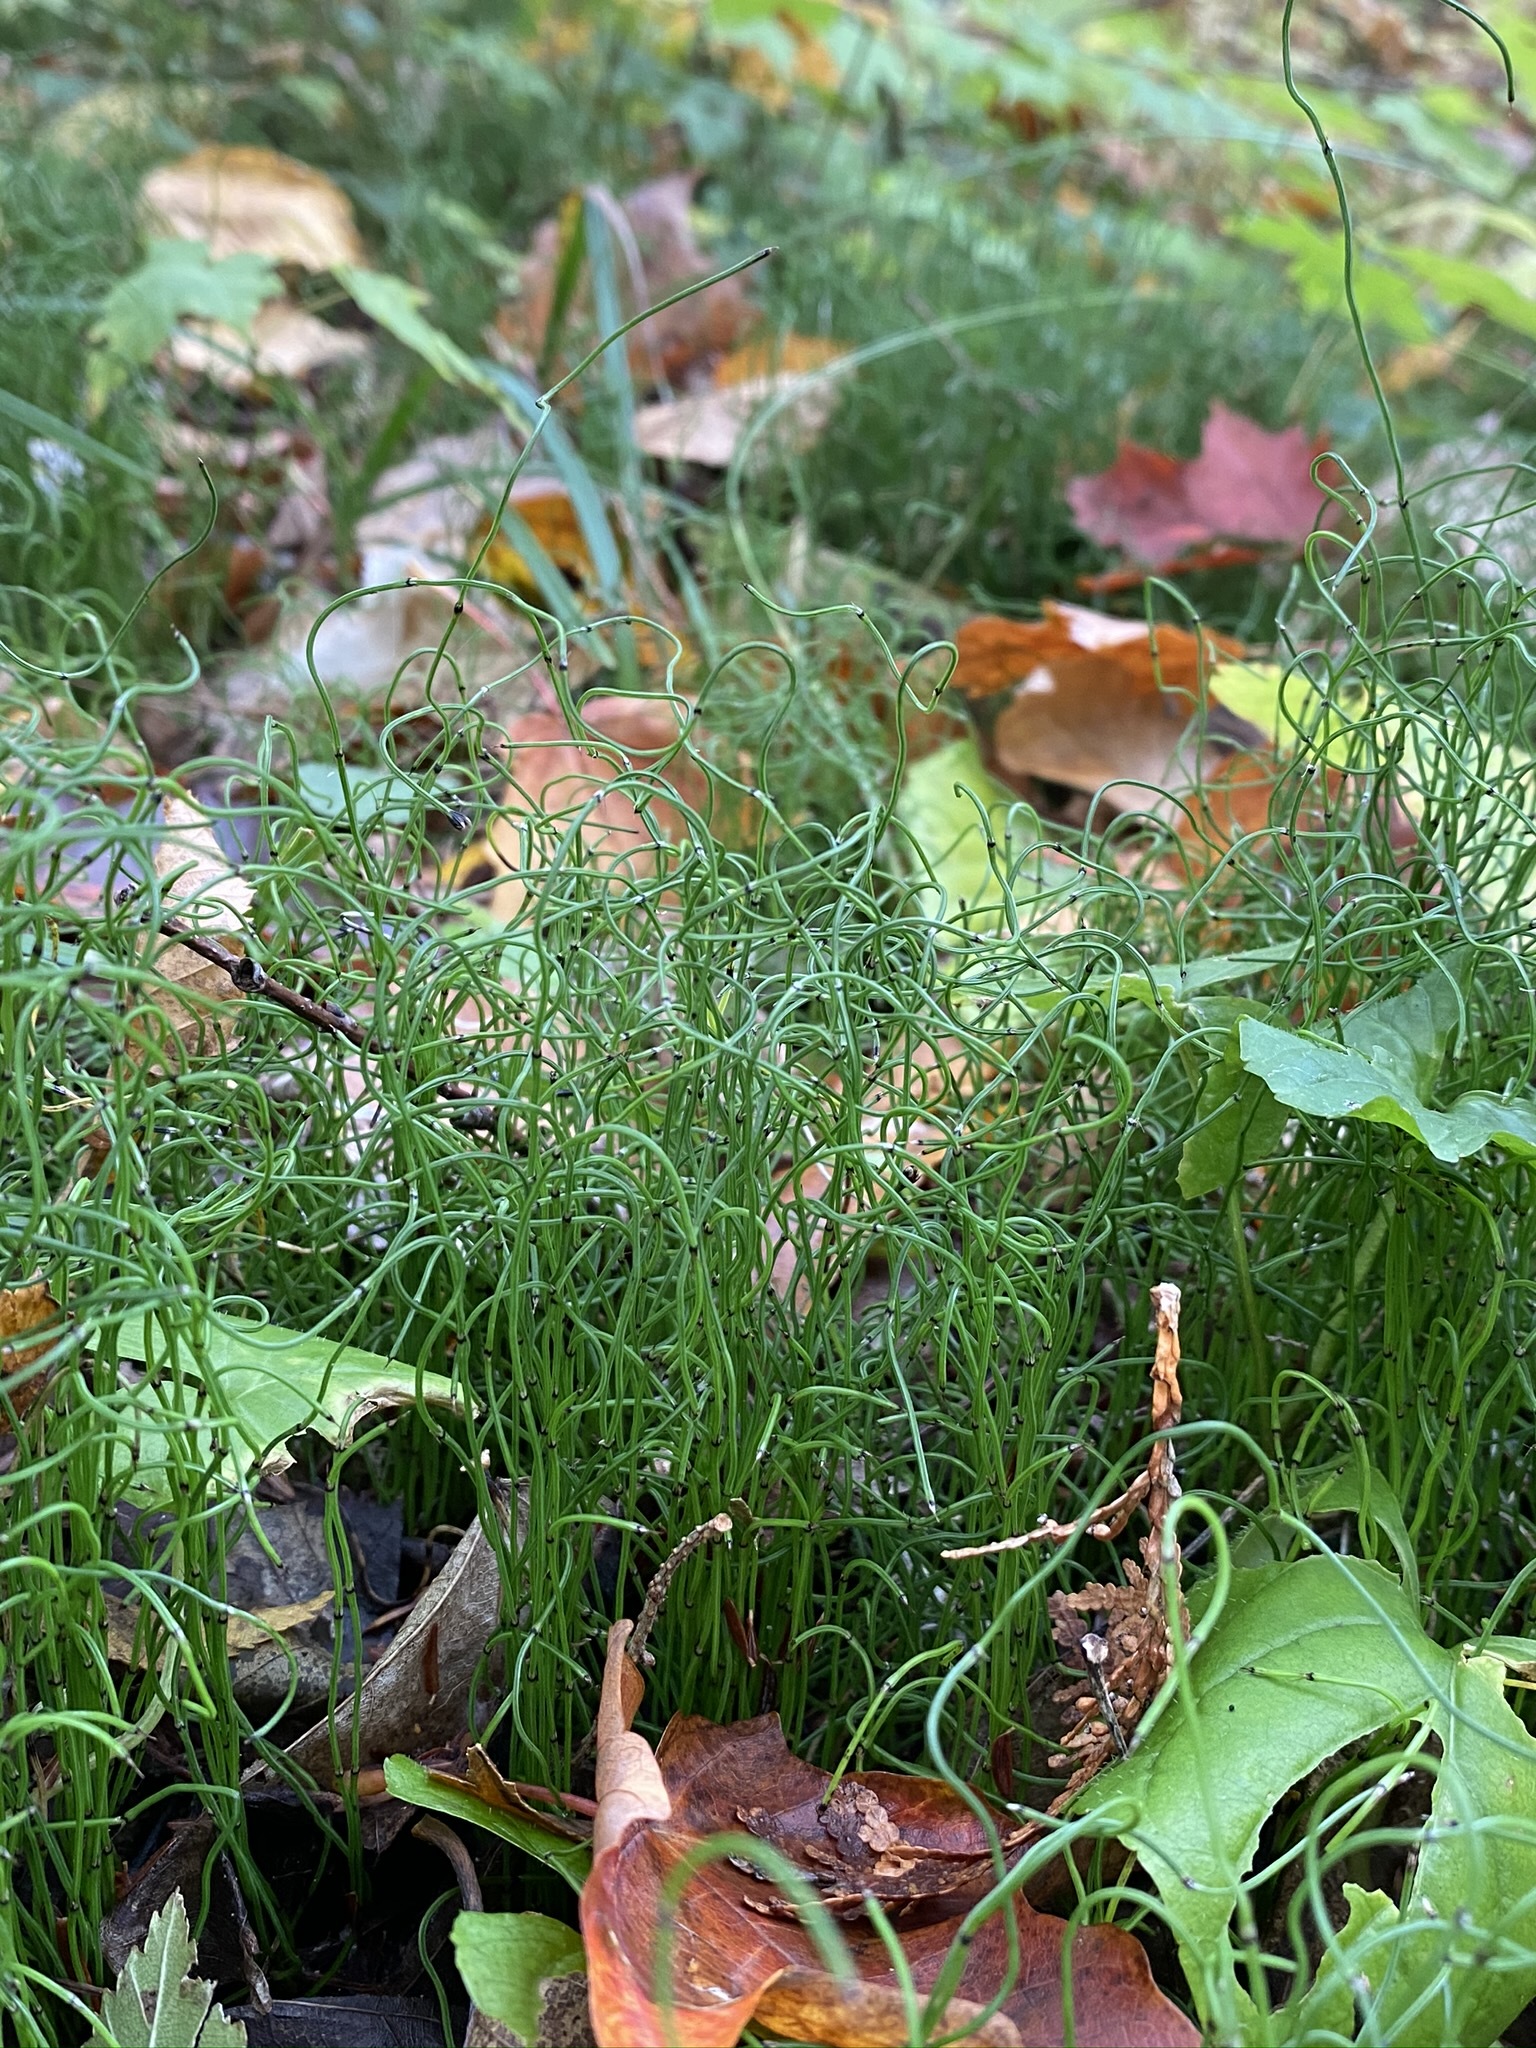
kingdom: Plantae
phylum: Tracheophyta
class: Polypodiopsida
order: Equisetales
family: Equisetaceae
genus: Equisetum
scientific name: Equisetum scirpoides
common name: Delicate horsetail
